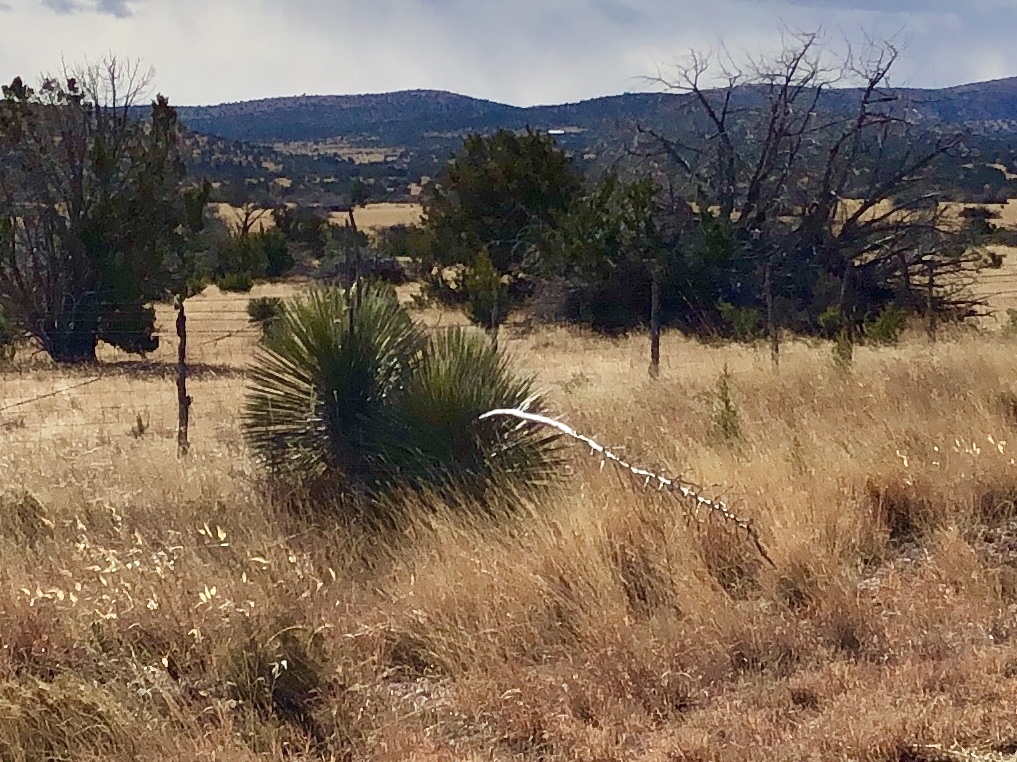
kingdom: Plantae
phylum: Tracheophyta
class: Liliopsida
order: Asparagales
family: Asparagaceae
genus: Yucca
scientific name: Yucca elata
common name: Palmella
